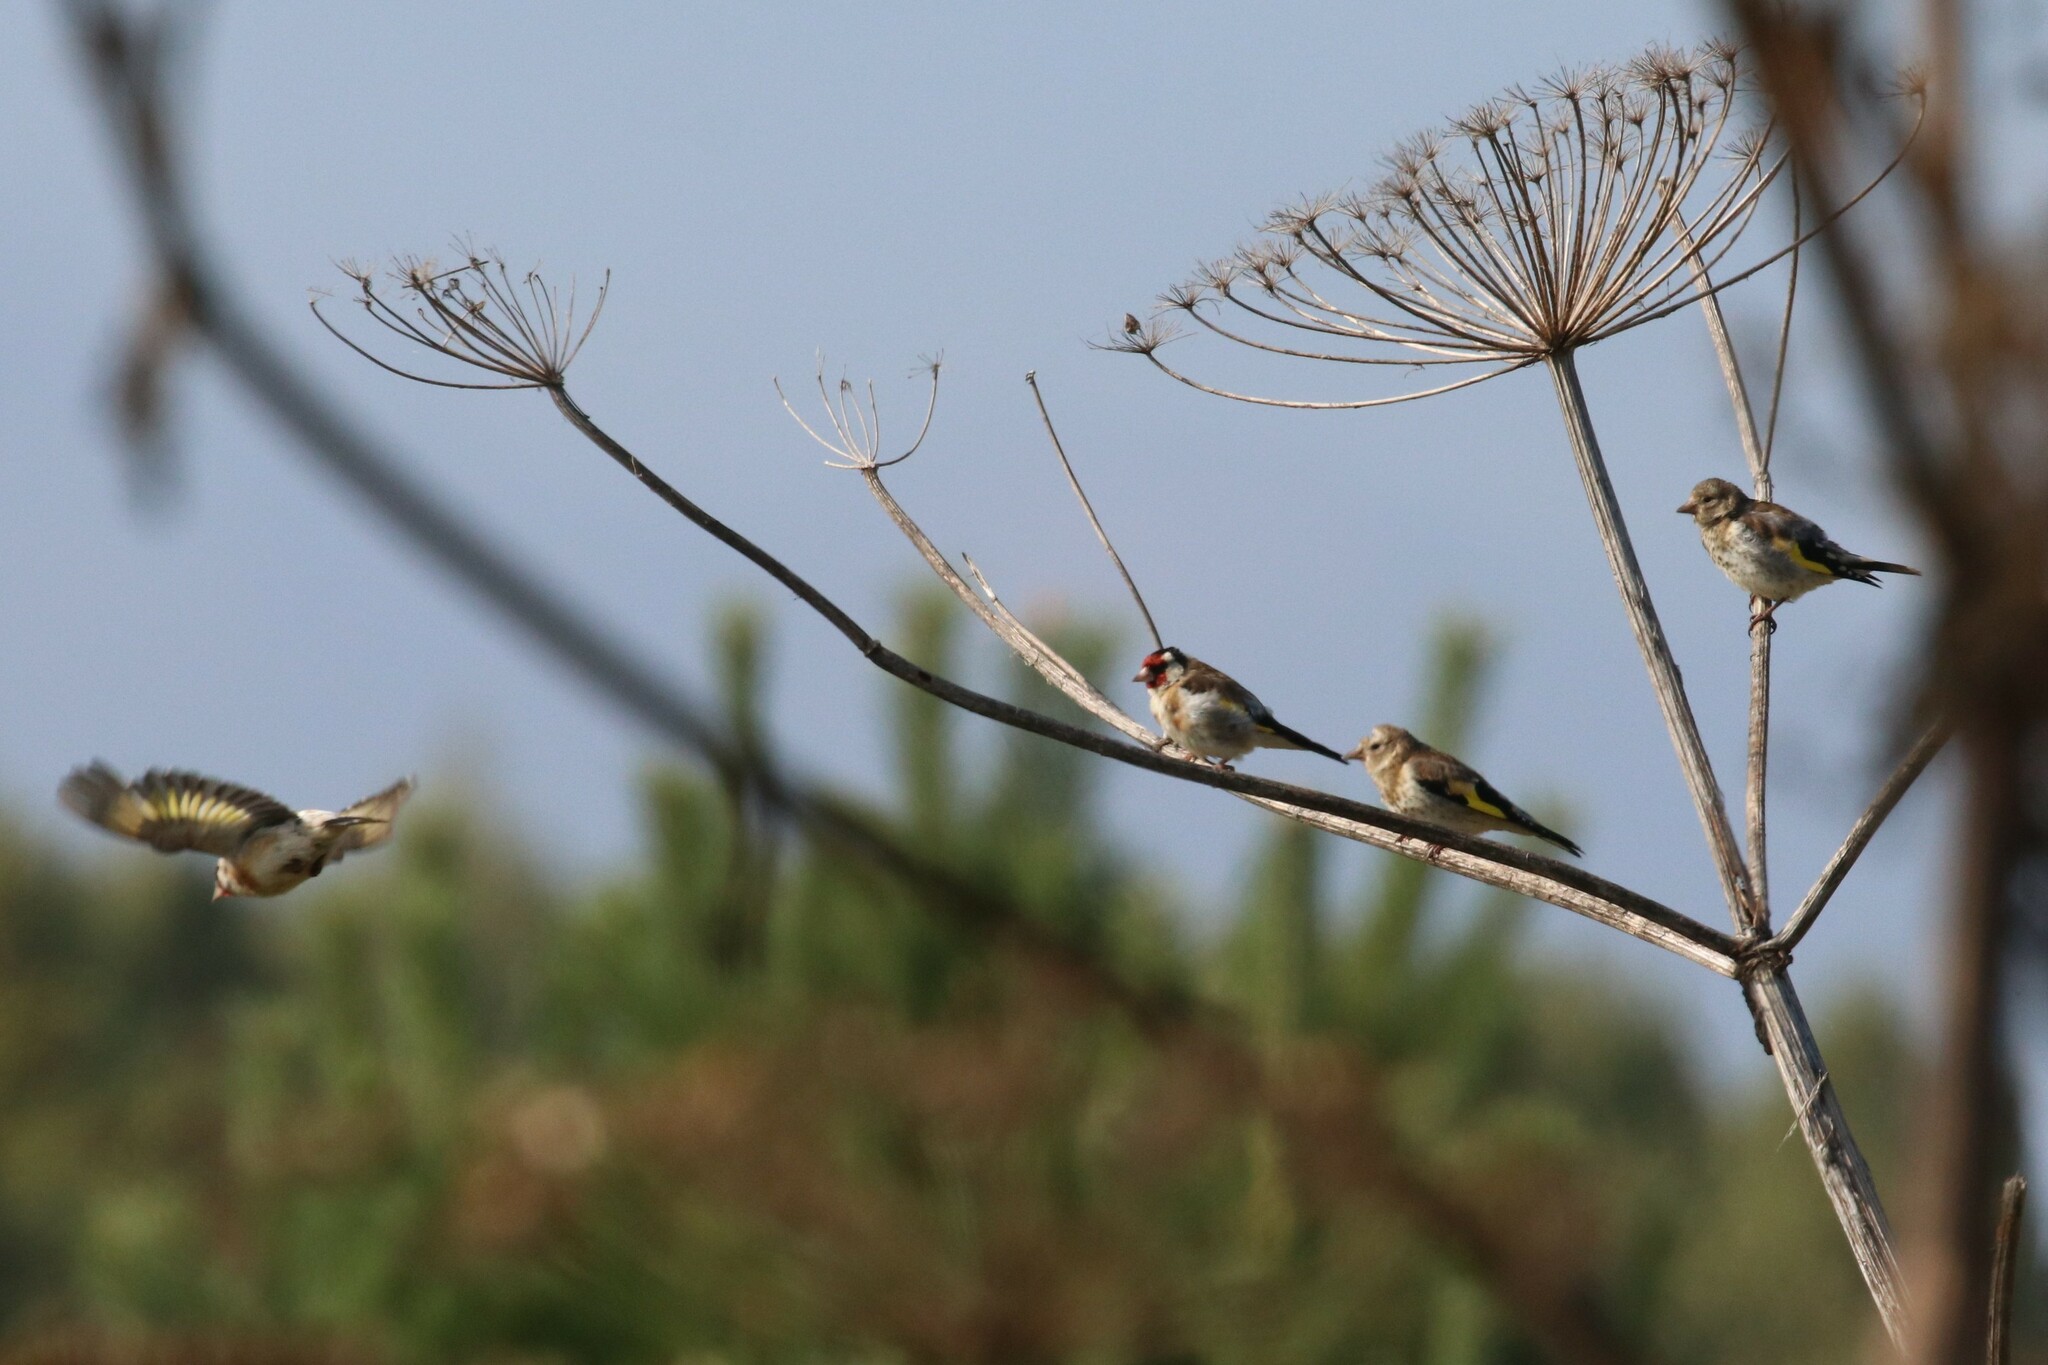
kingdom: Animalia
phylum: Chordata
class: Aves
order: Passeriformes
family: Fringillidae
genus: Carduelis
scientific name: Carduelis carduelis
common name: European goldfinch
